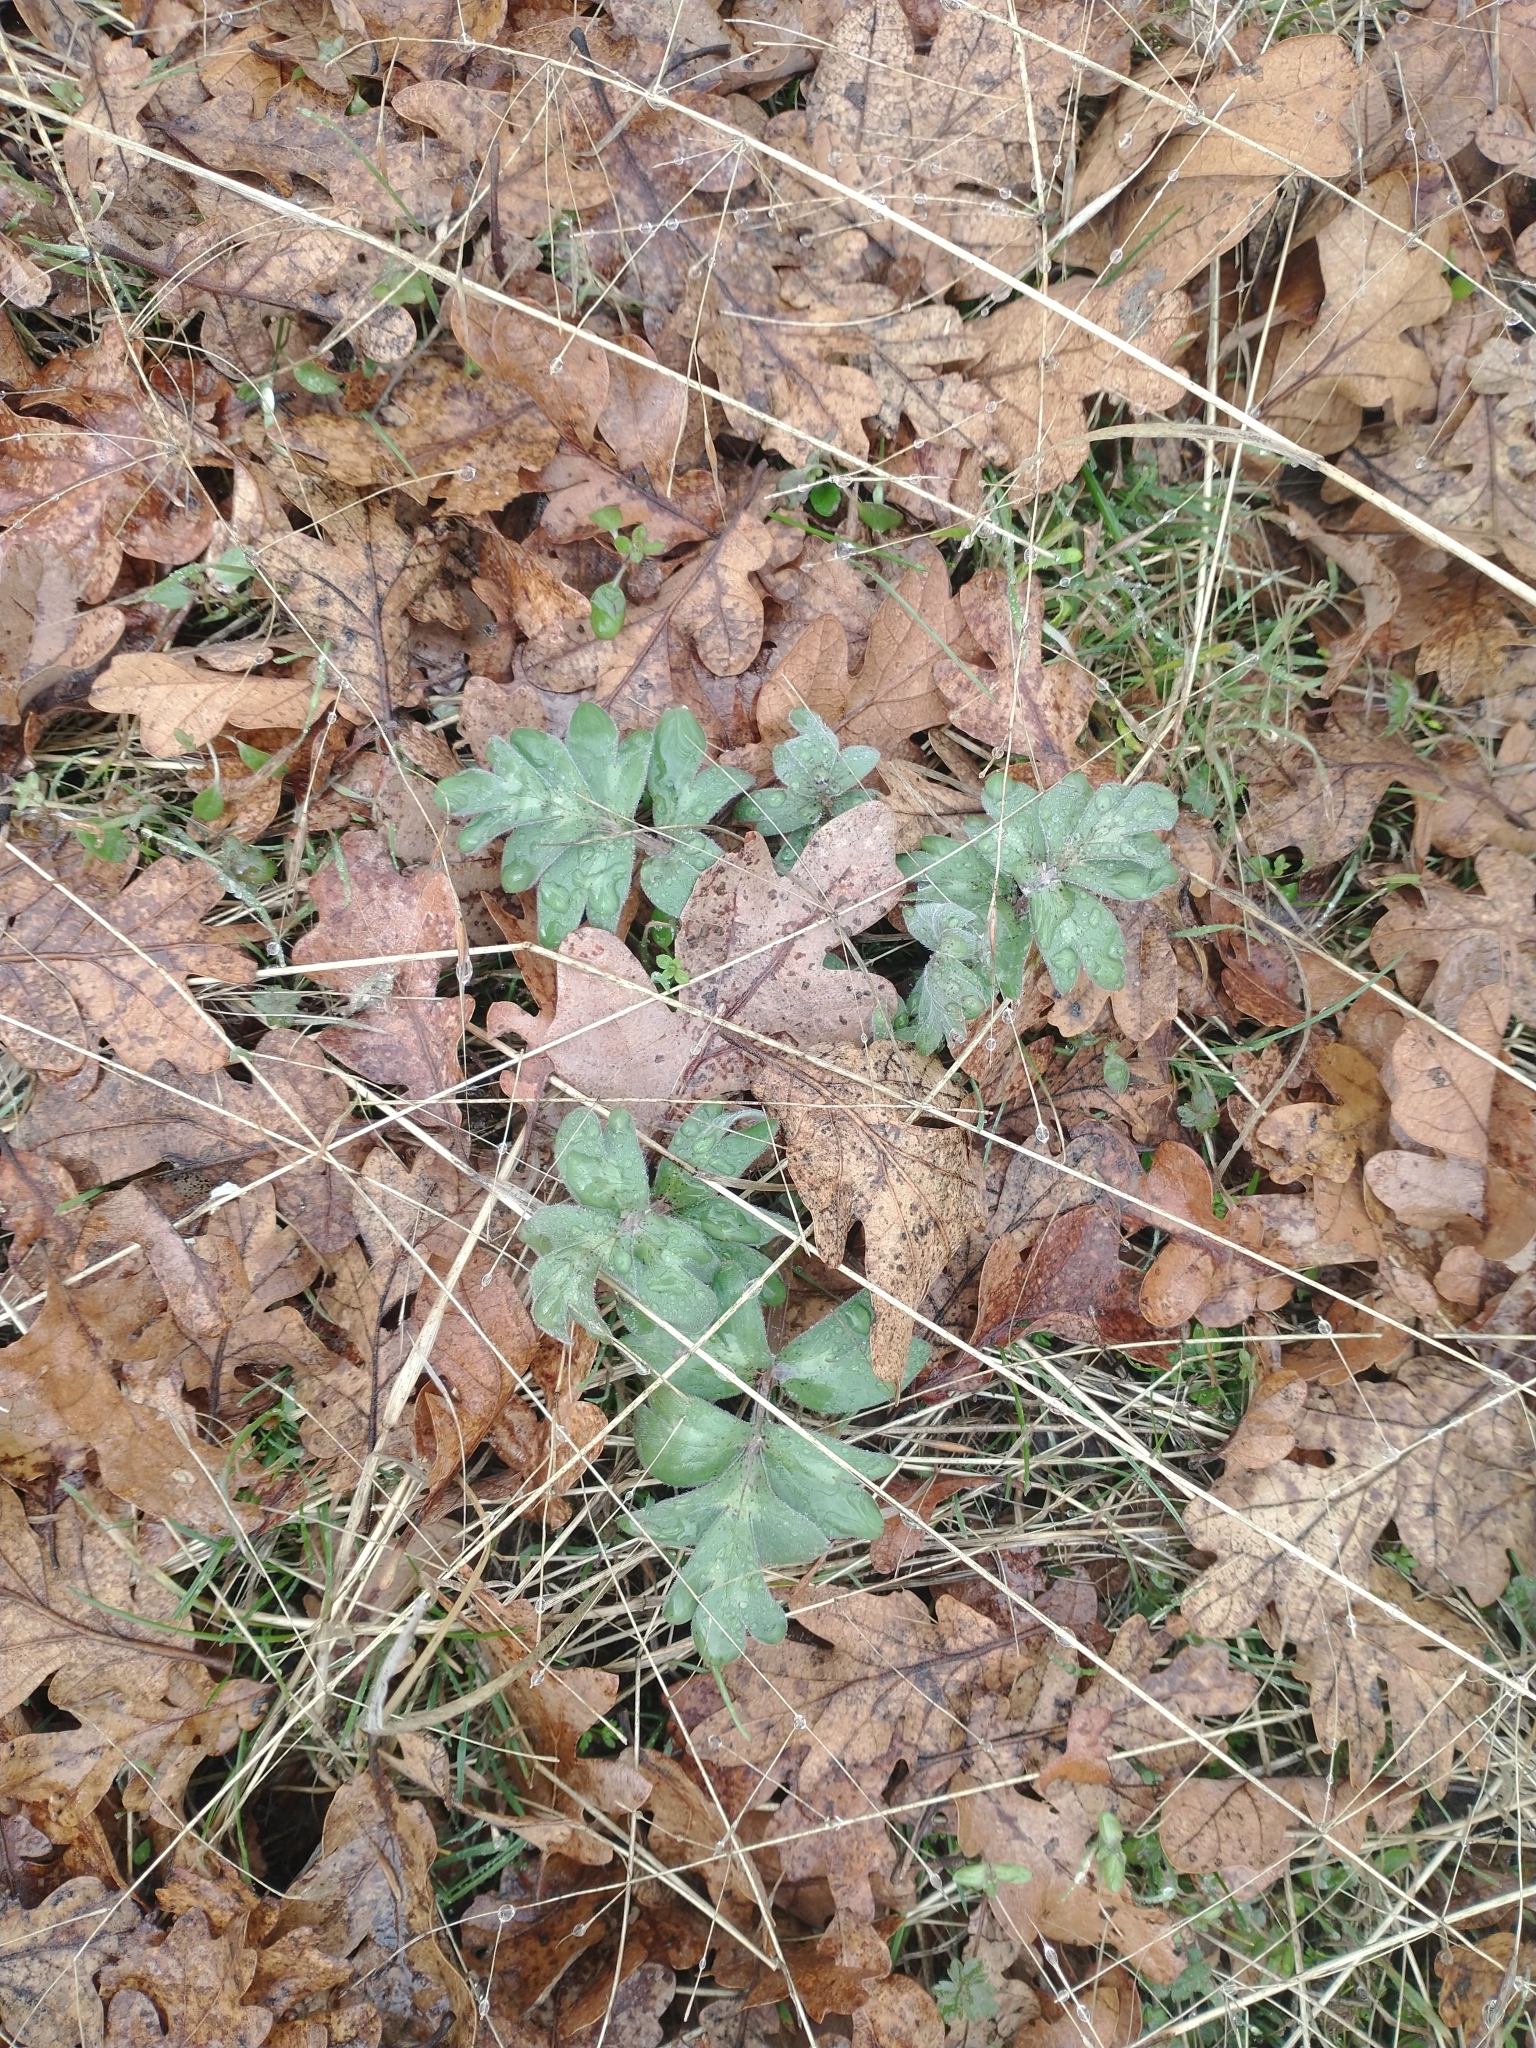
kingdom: Plantae
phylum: Tracheophyta
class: Magnoliopsida
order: Boraginales
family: Hydrophyllaceae
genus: Hydrophyllum
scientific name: Hydrophyllum capitatum
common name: Woollen-breeches
